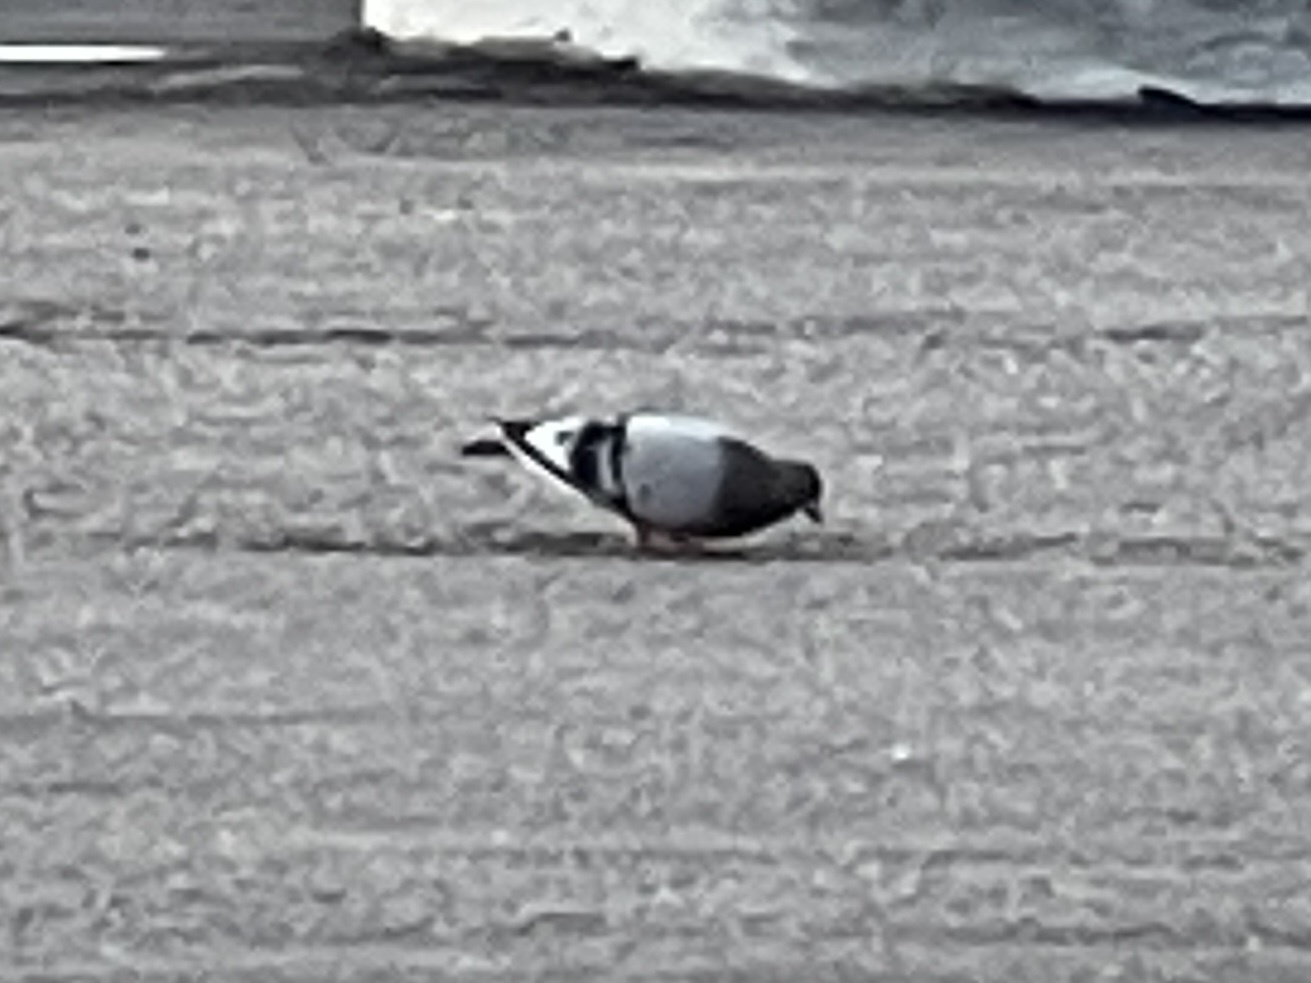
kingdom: Animalia
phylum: Chordata
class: Aves
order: Columbiformes
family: Columbidae
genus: Columba
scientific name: Columba livia
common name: Rock pigeon
